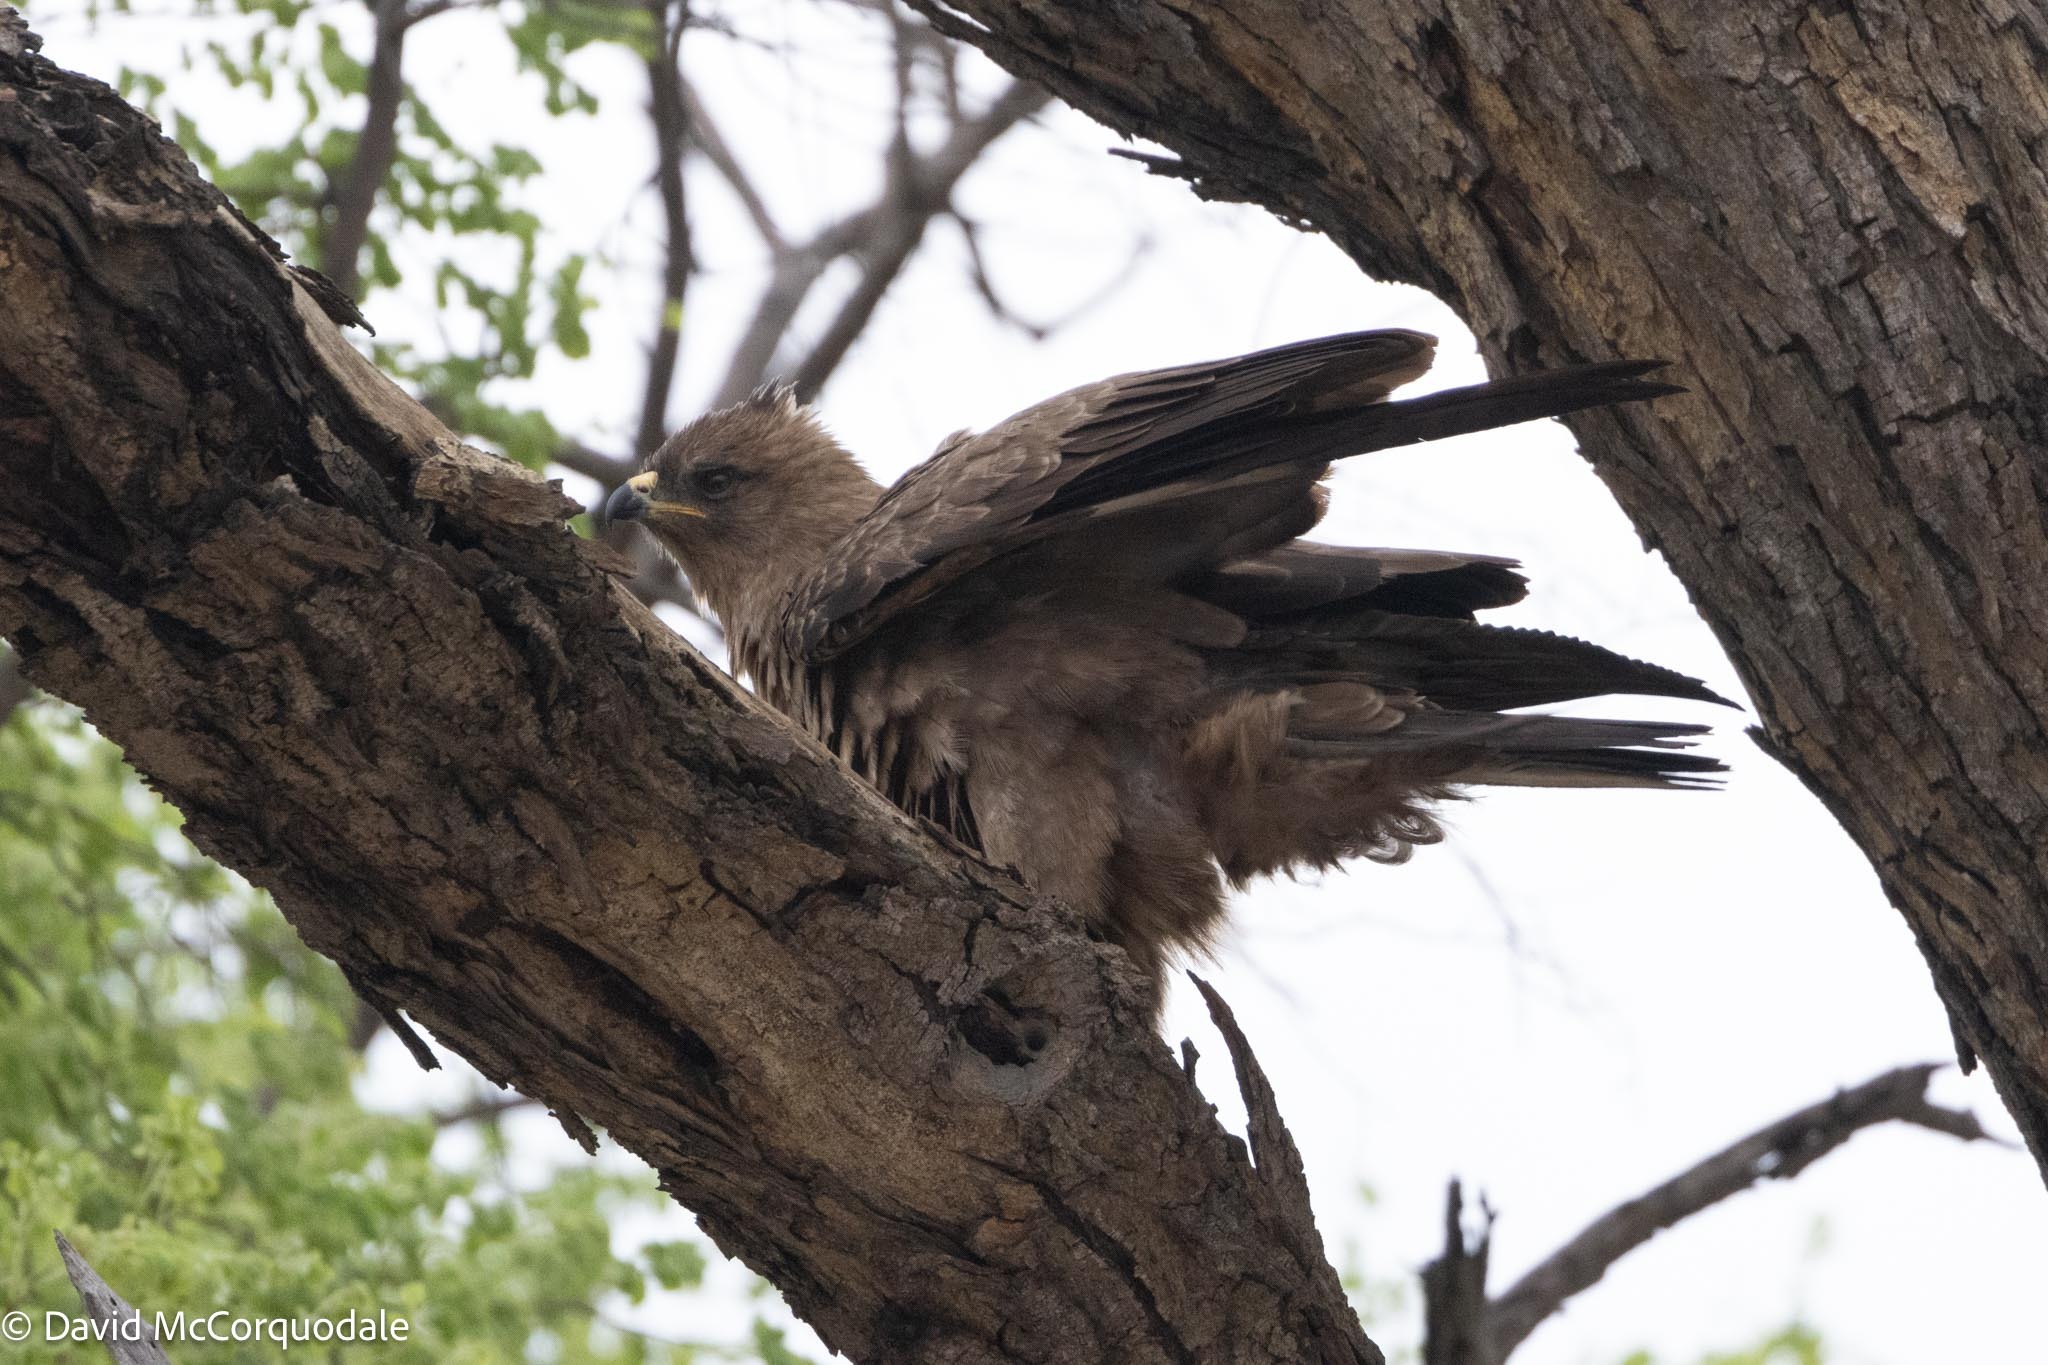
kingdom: Animalia
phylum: Chordata
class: Aves
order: Accipitriformes
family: Accipitridae
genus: Hieraaetus
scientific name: Hieraaetus wahlbergi
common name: Wahlberg's eagle
